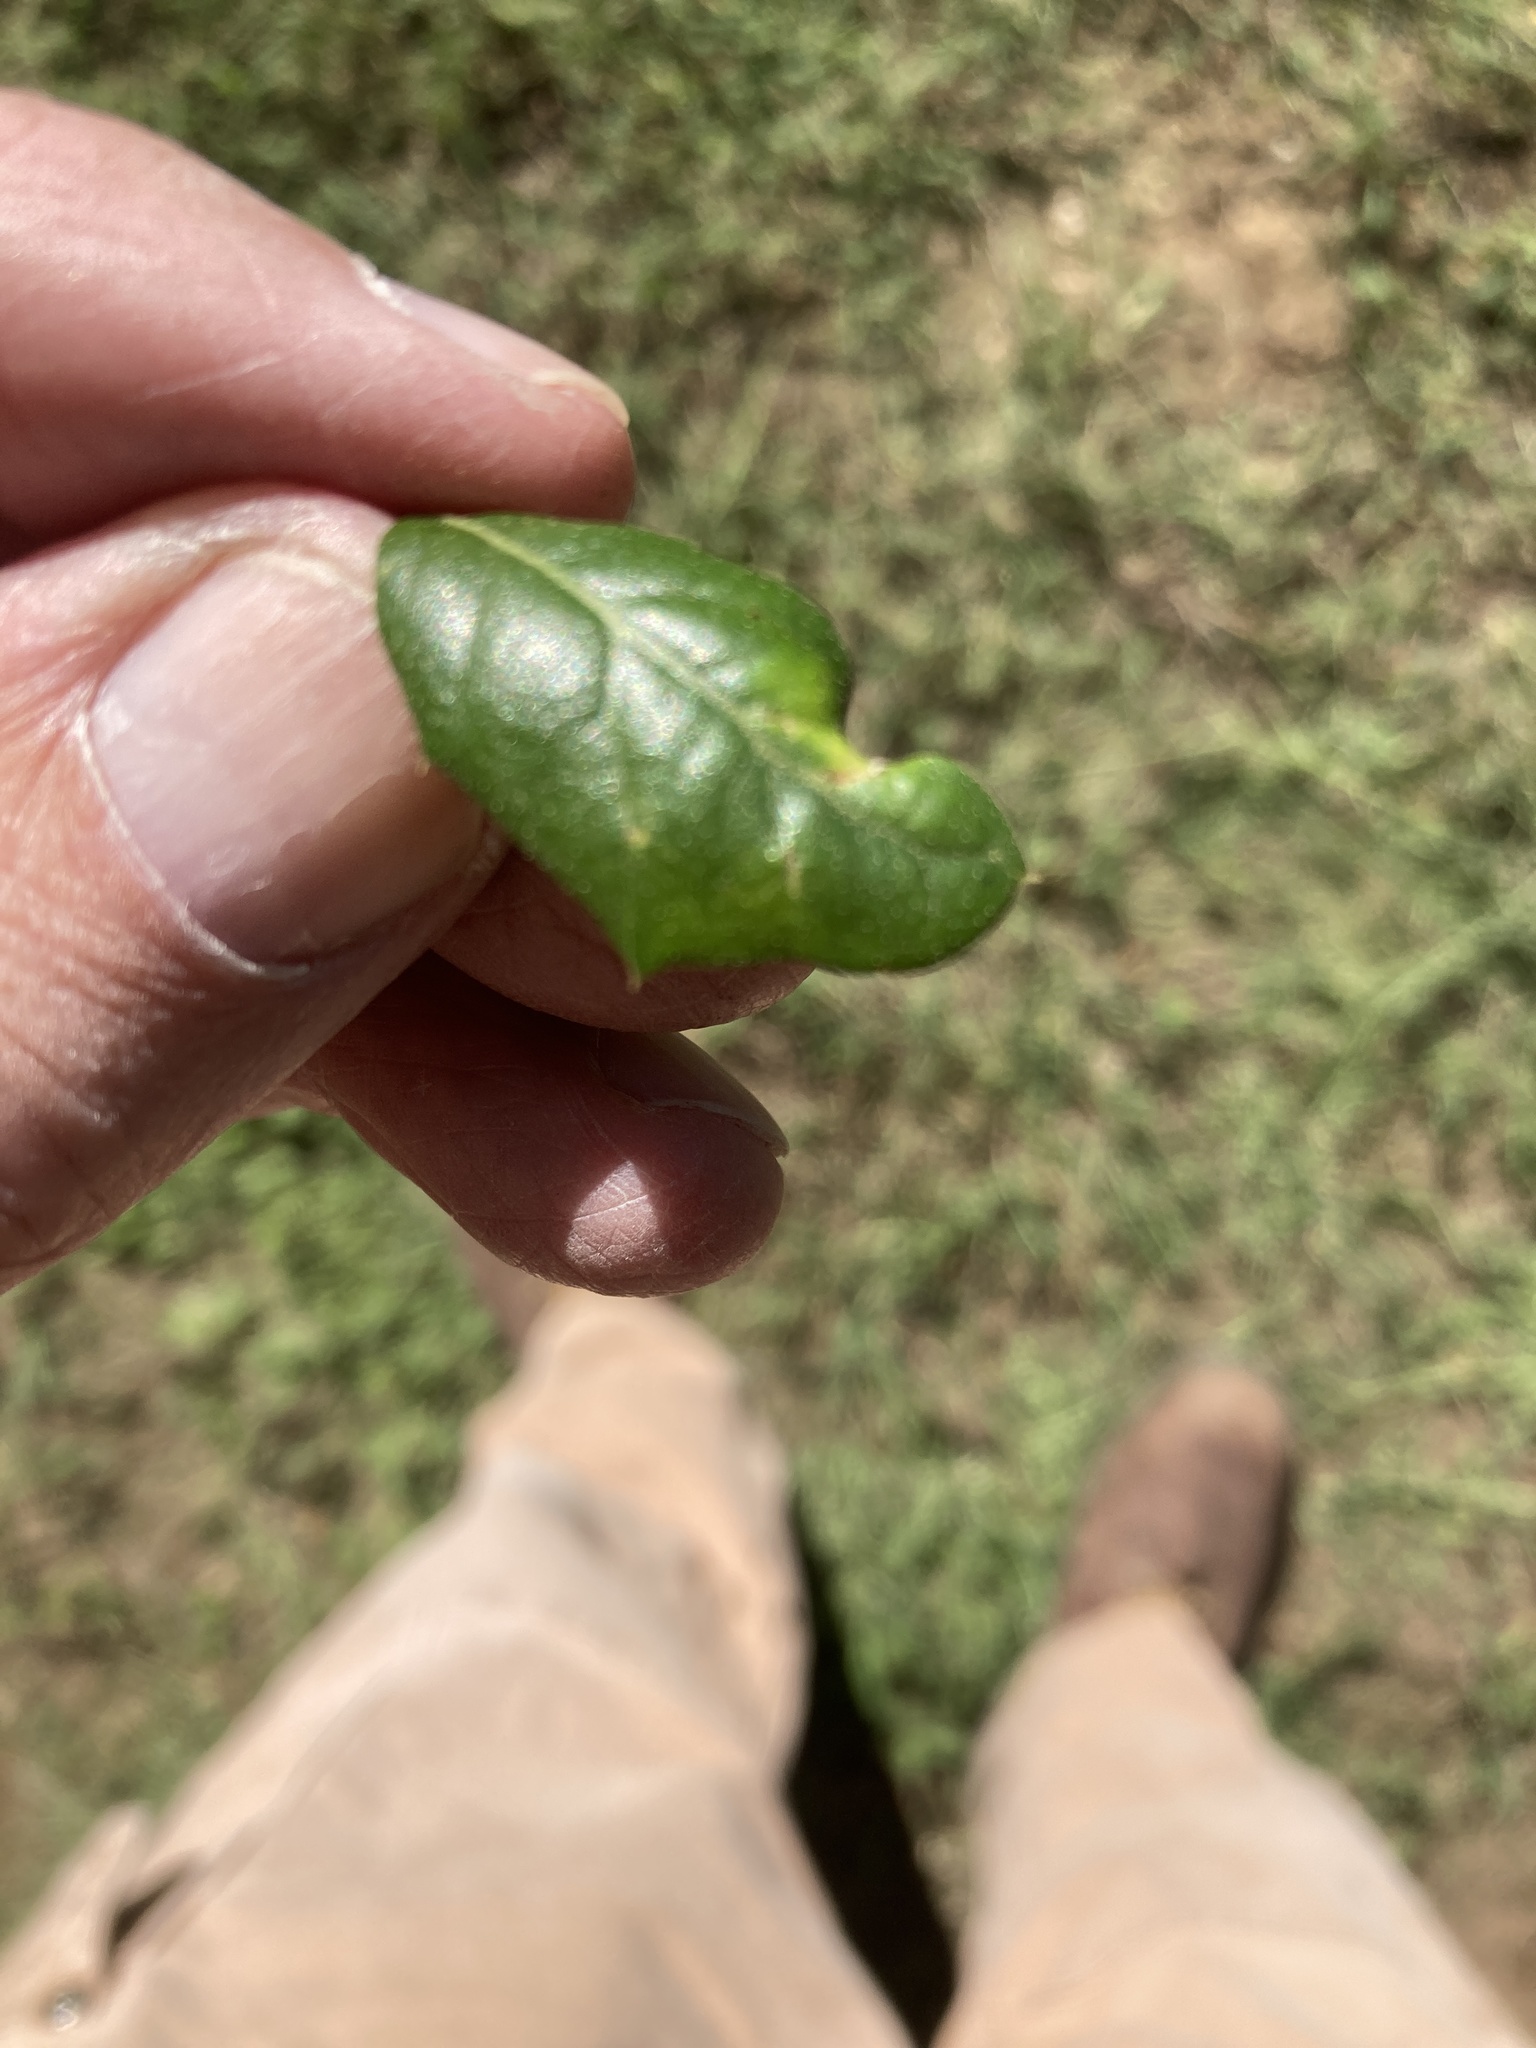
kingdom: Animalia
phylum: Arthropoda
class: Insecta
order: Hymenoptera
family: Cynipidae
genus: Belonocnema
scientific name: Belonocnema kinseyi
